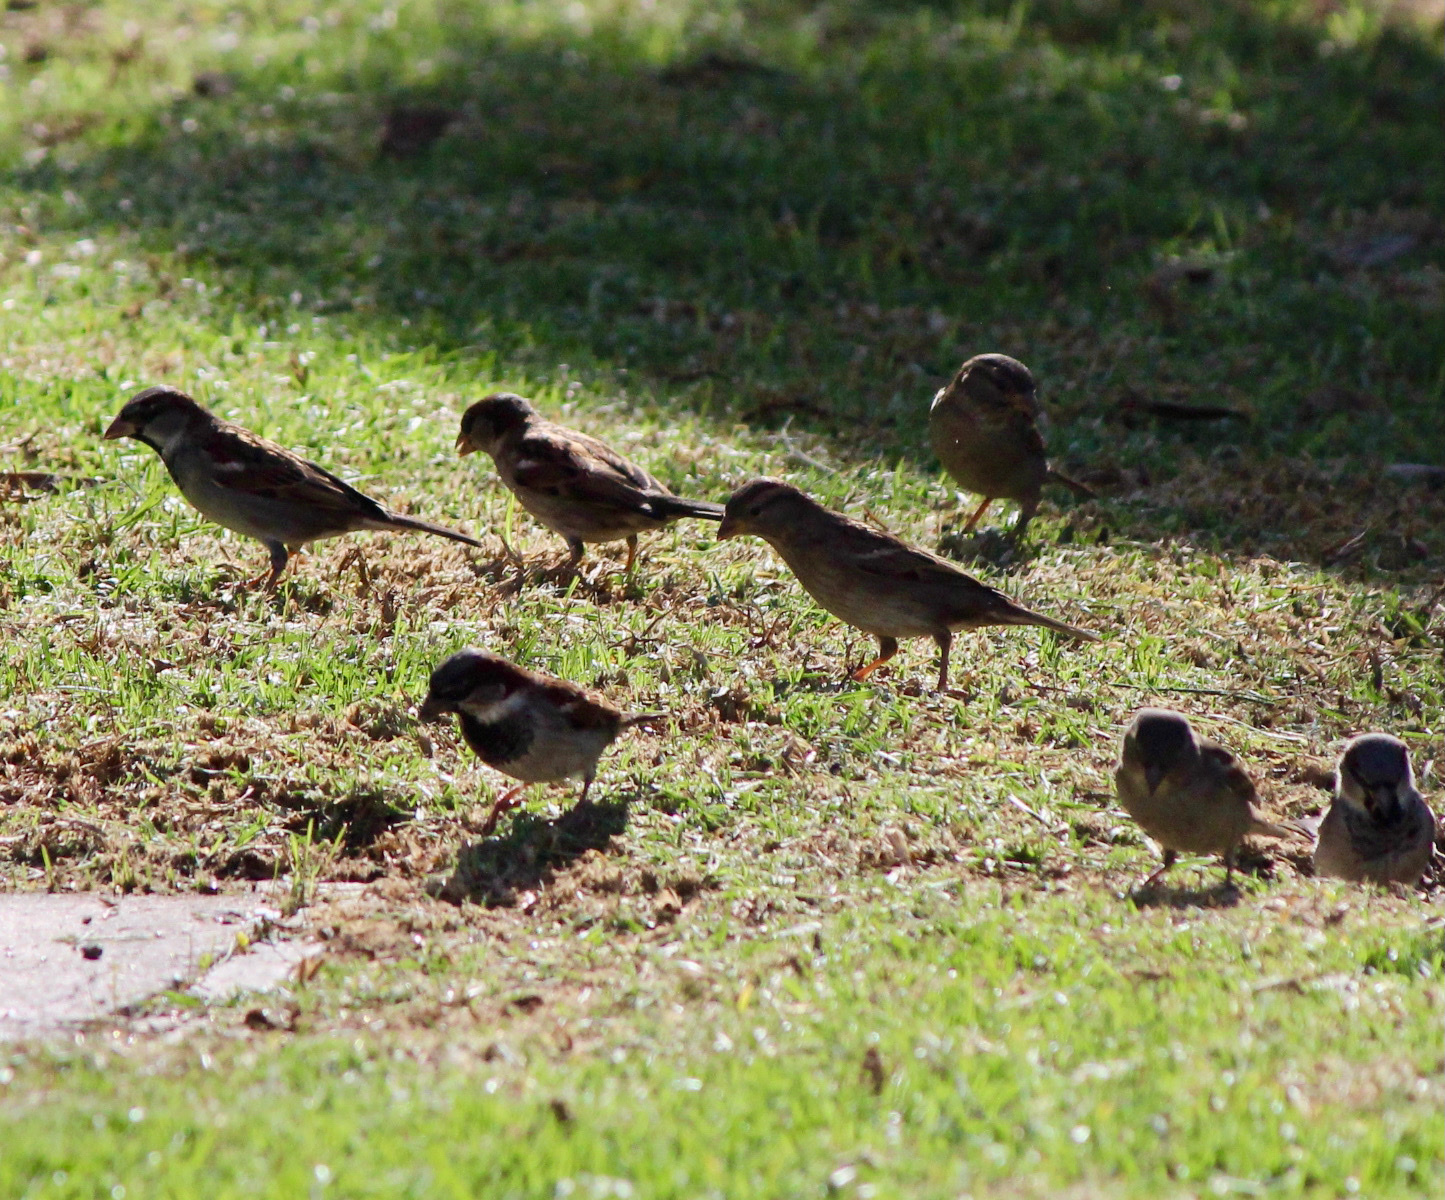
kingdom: Animalia
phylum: Chordata
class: Aves
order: Passeriformes
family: Passeridae
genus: Passer
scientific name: Passer domesticus
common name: House sparrow
